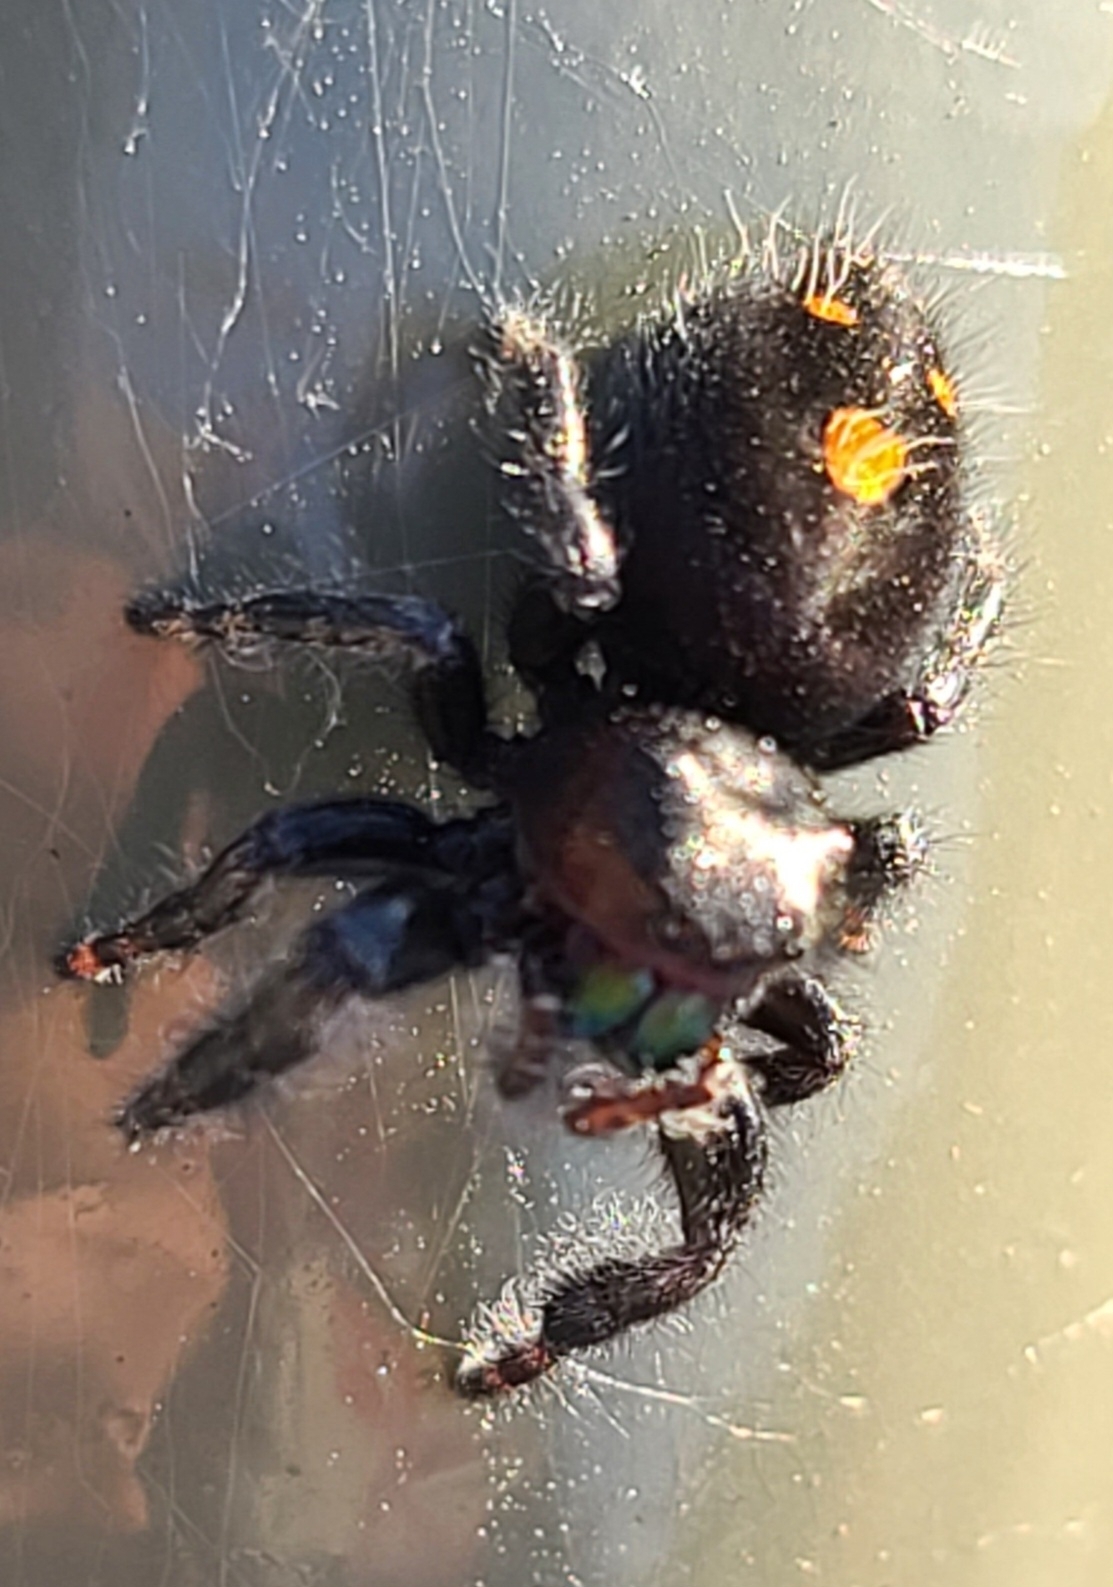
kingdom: Animalia
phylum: Arthropoda
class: Arachnida
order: Araneae
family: Salticidae
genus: Phidippus
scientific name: Phidippus audax
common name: Bold jumper
